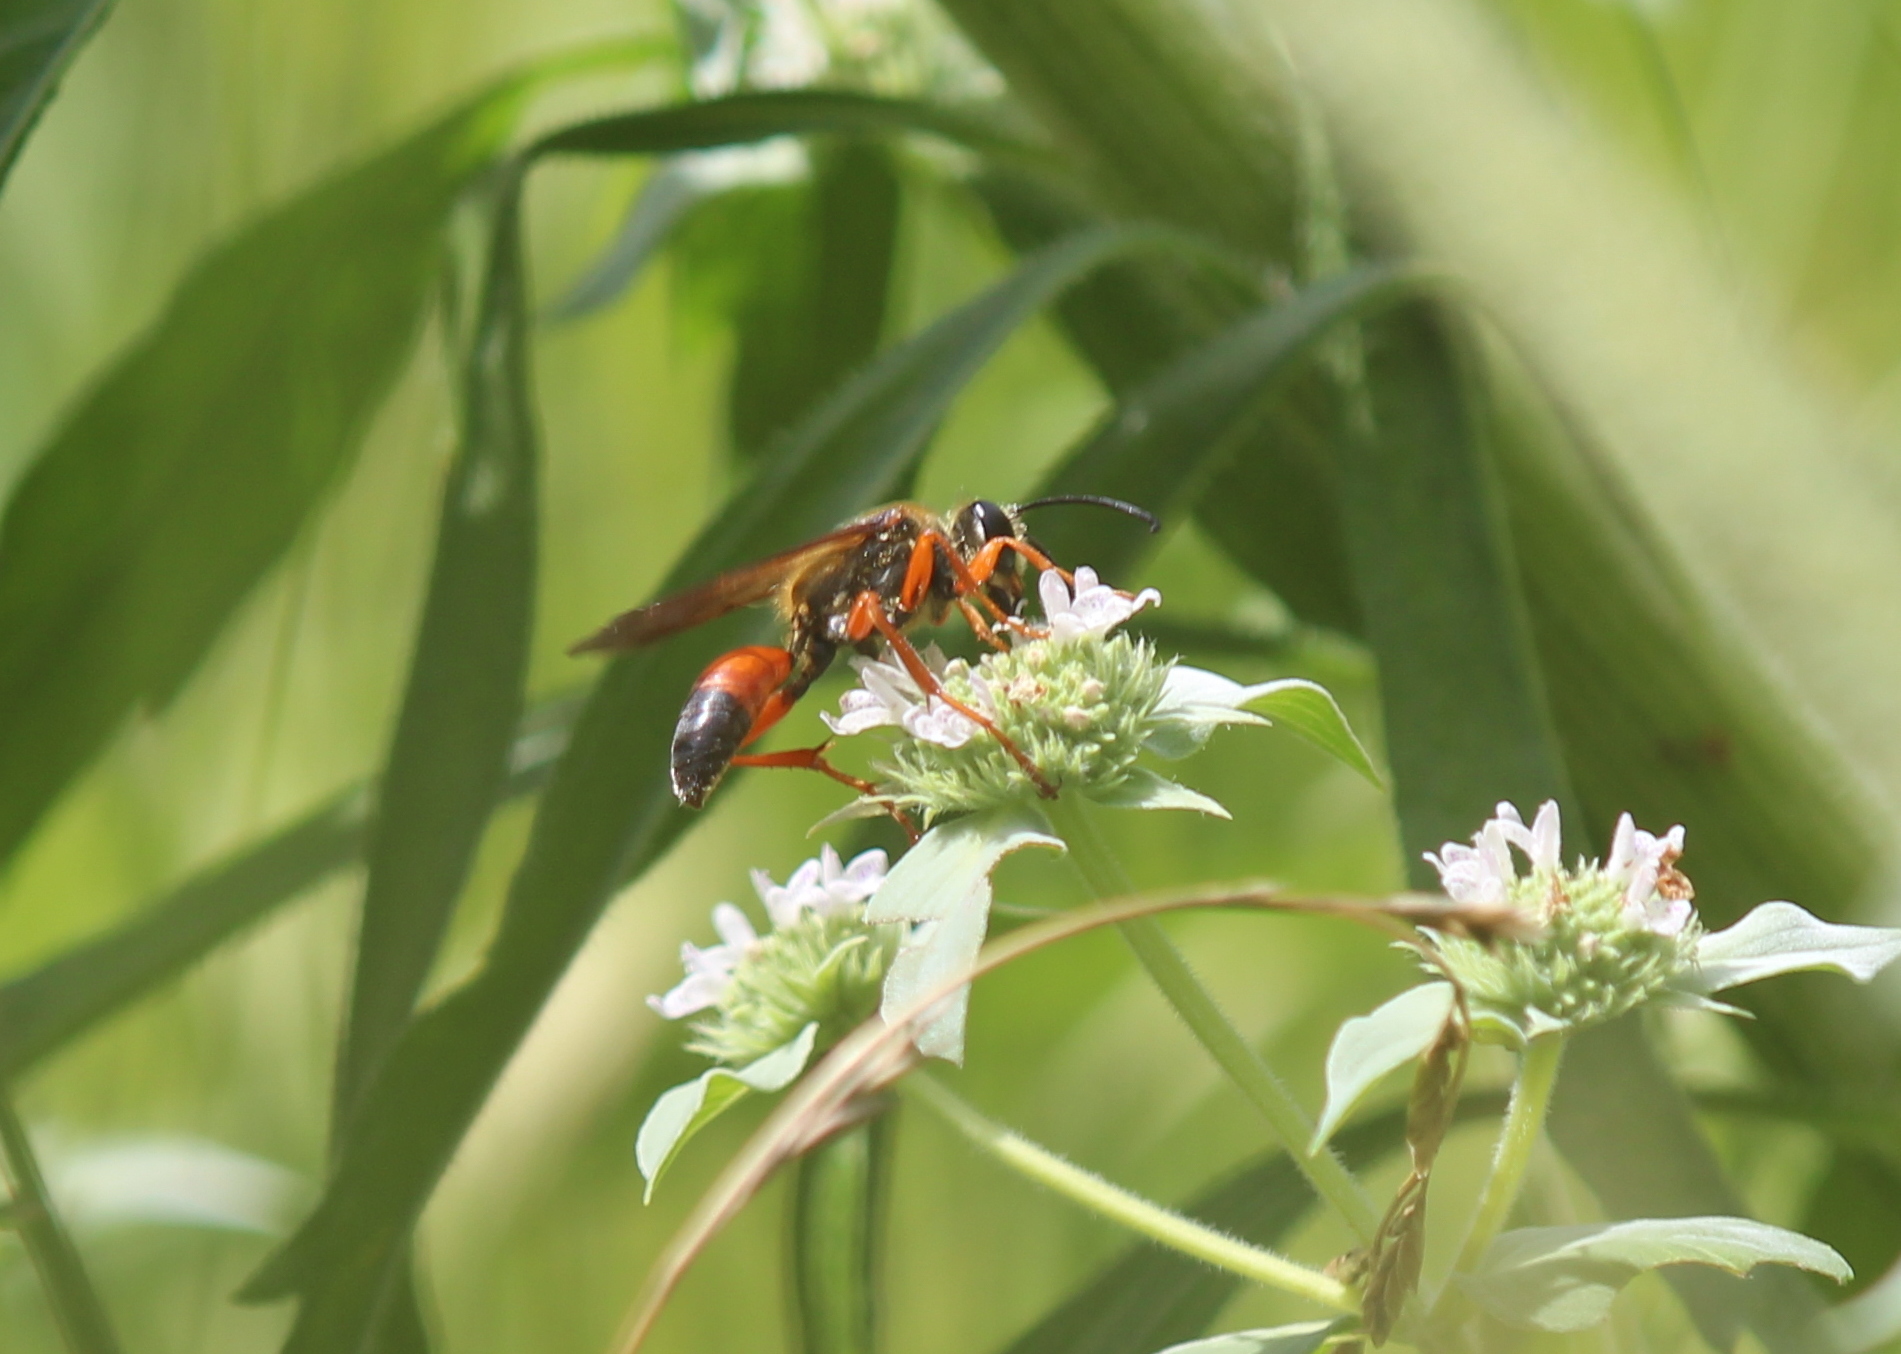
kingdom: Animalia
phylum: Arthropoda
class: Insecta
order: Hymenoptera
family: Sphecidae
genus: Sphex
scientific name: Sphex ichneumoneus
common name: Great golden digger wasp
